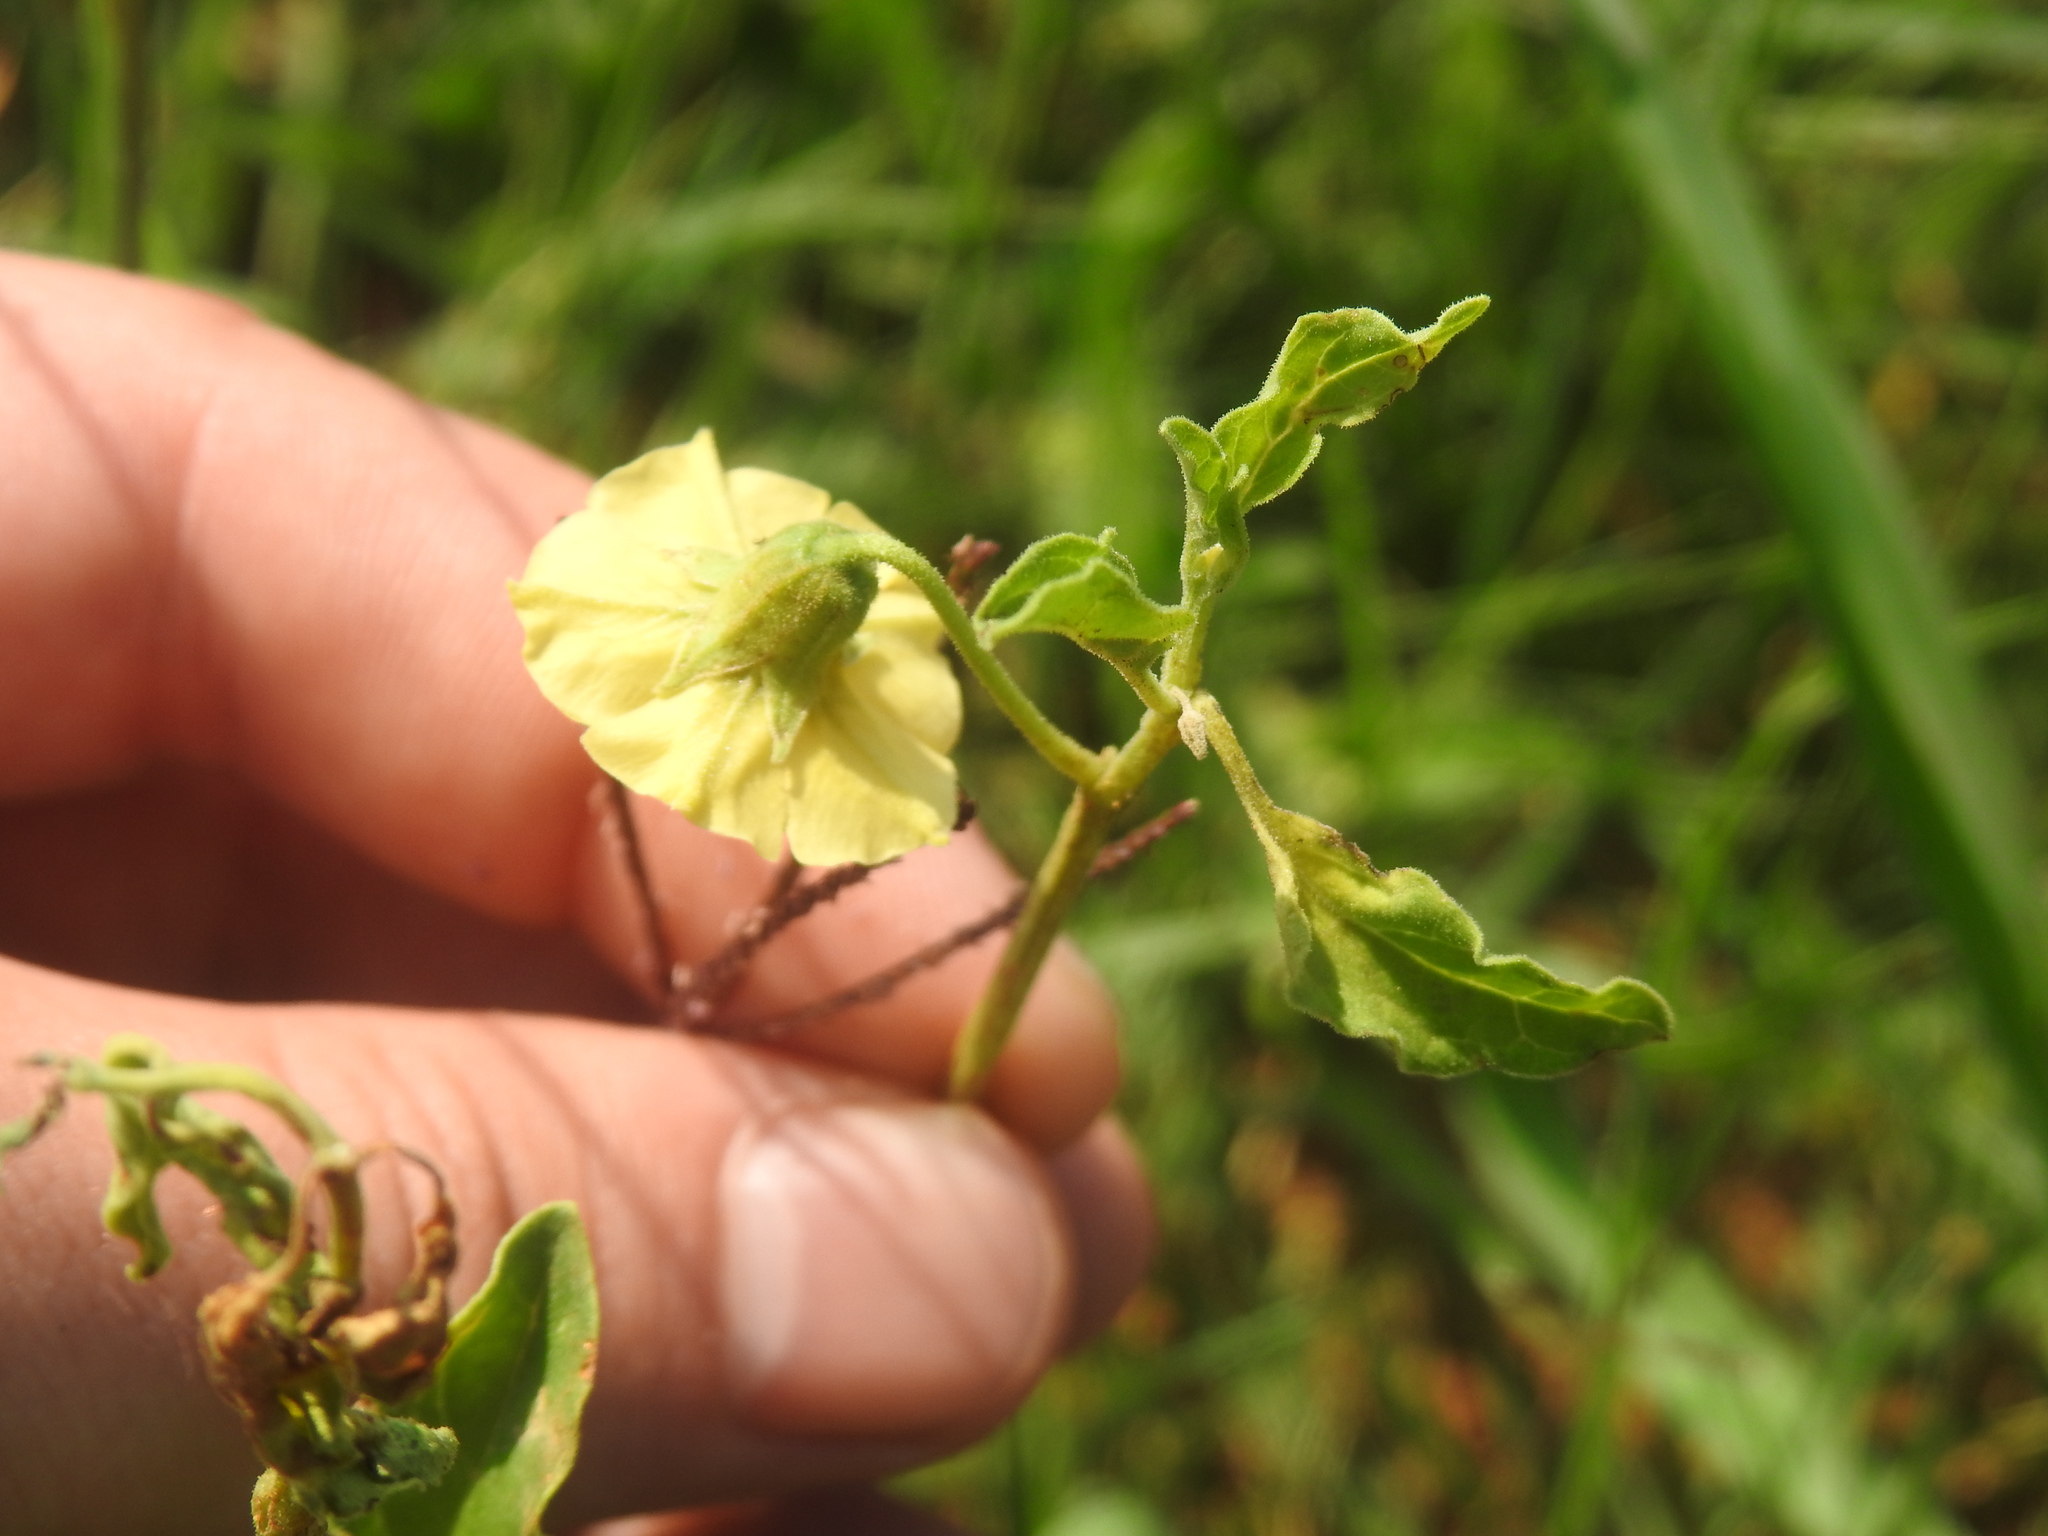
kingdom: Plantae
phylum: Tracheophyta
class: Magnoliopsida
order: Solanales
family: Solanaceae
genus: Physalis
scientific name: Physalis viscosa
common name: Stellate ground-cherry
